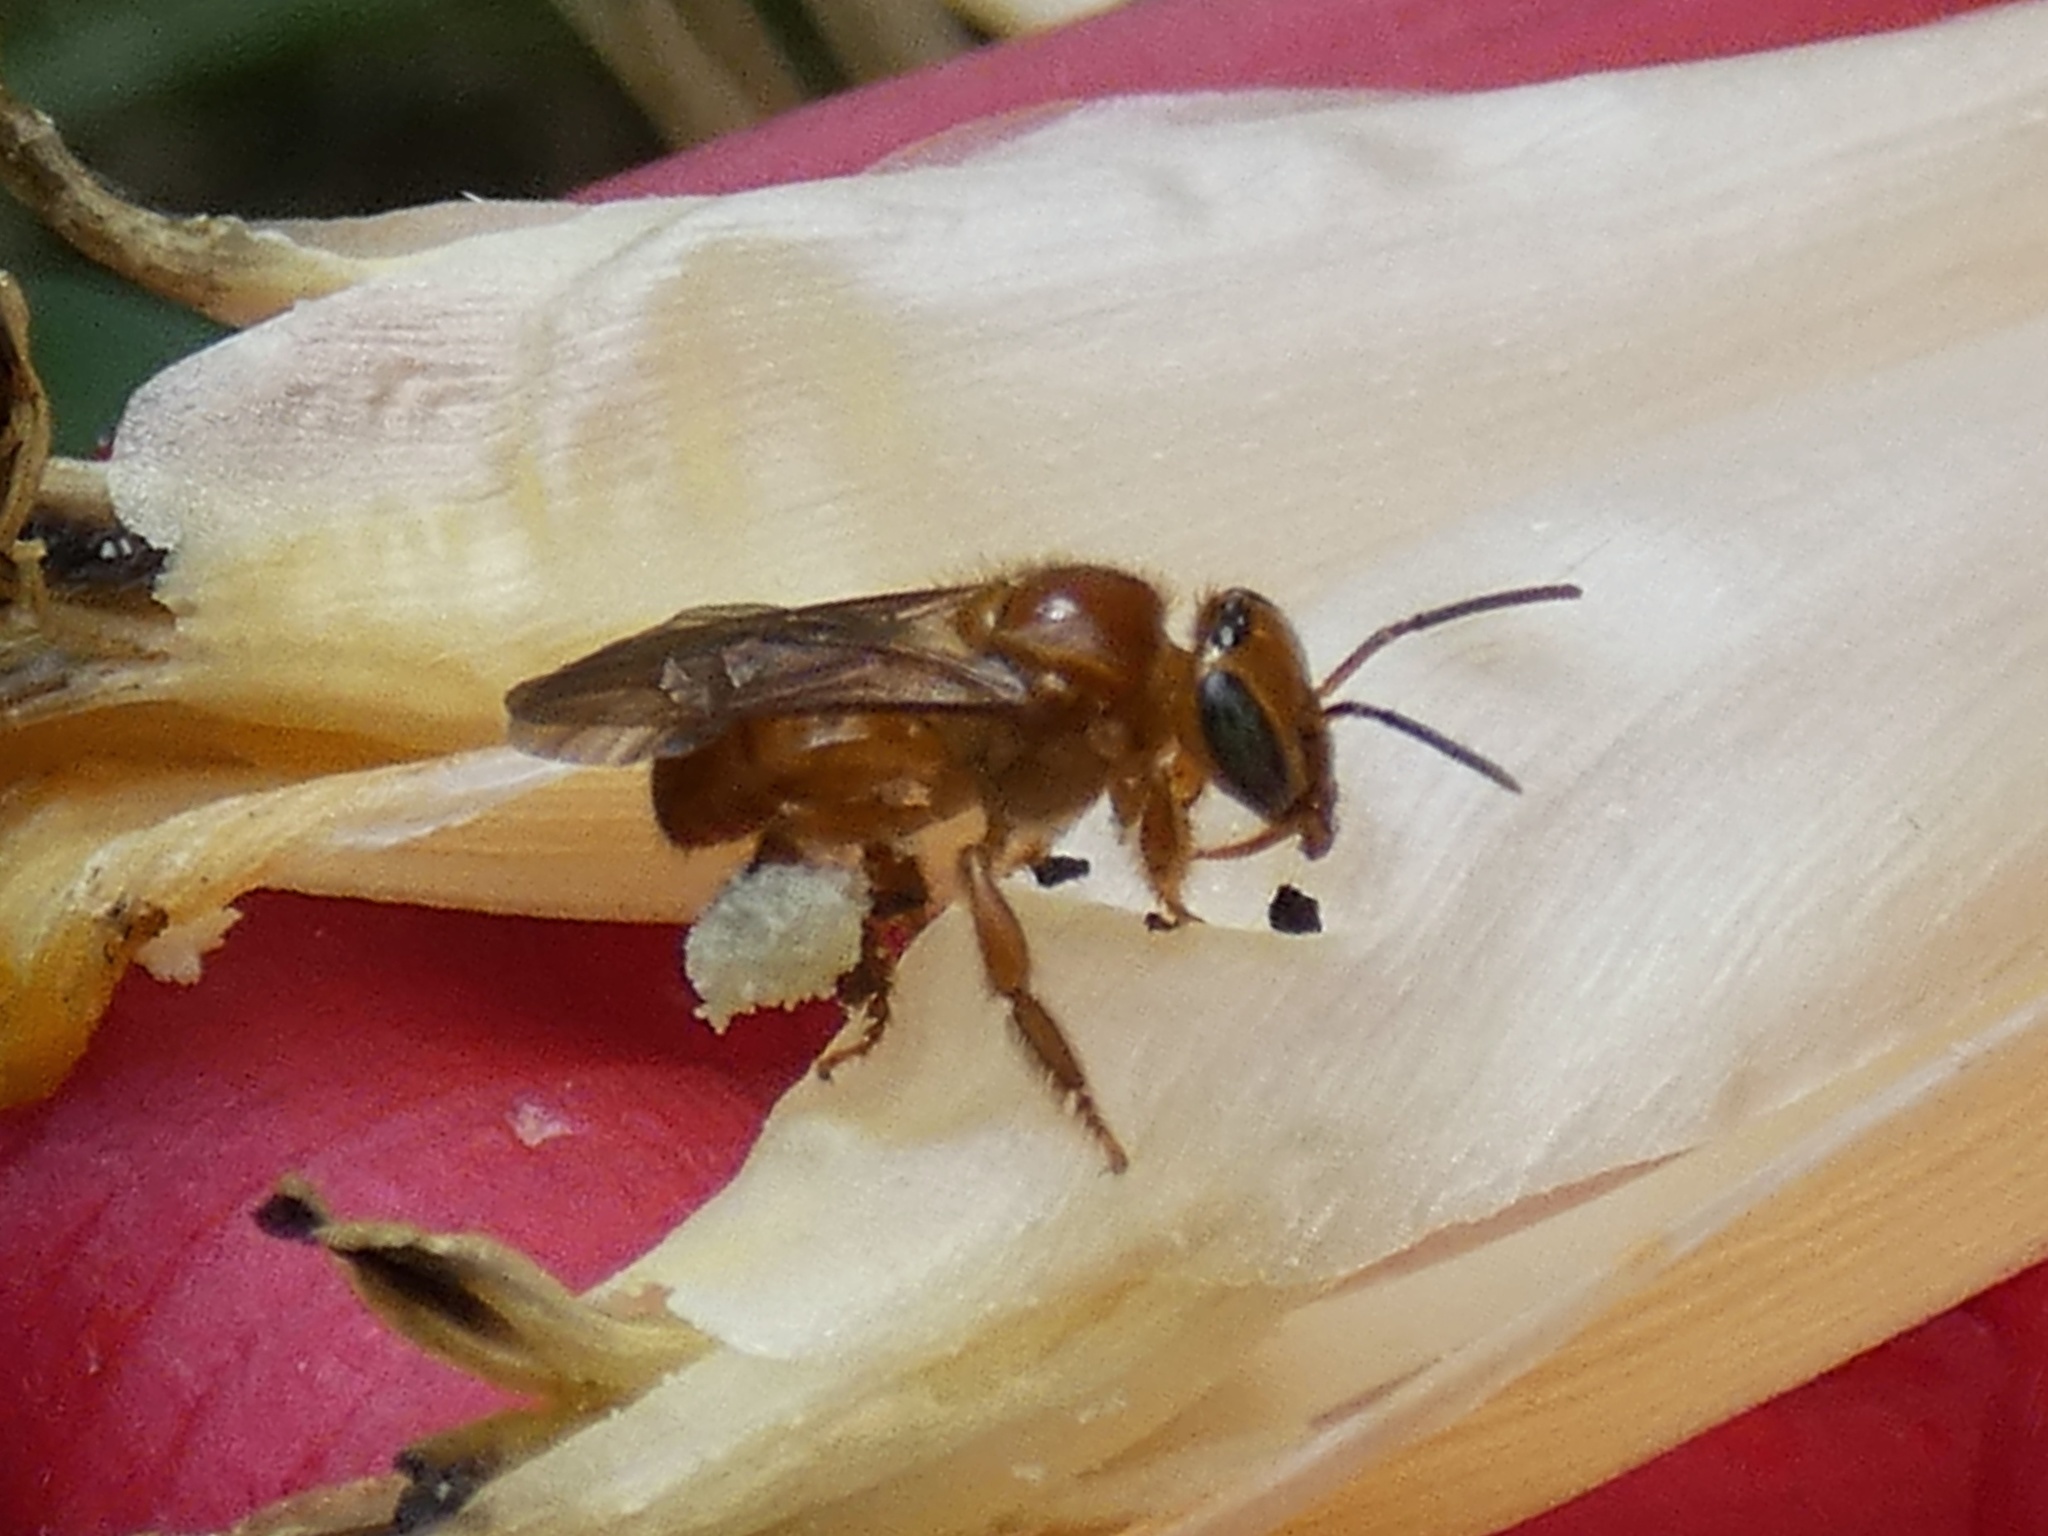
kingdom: Animalia
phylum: Arthropoda
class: Insecta
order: Hymenoptera
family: Apidae
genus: Partamona
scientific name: Partamona musarum
